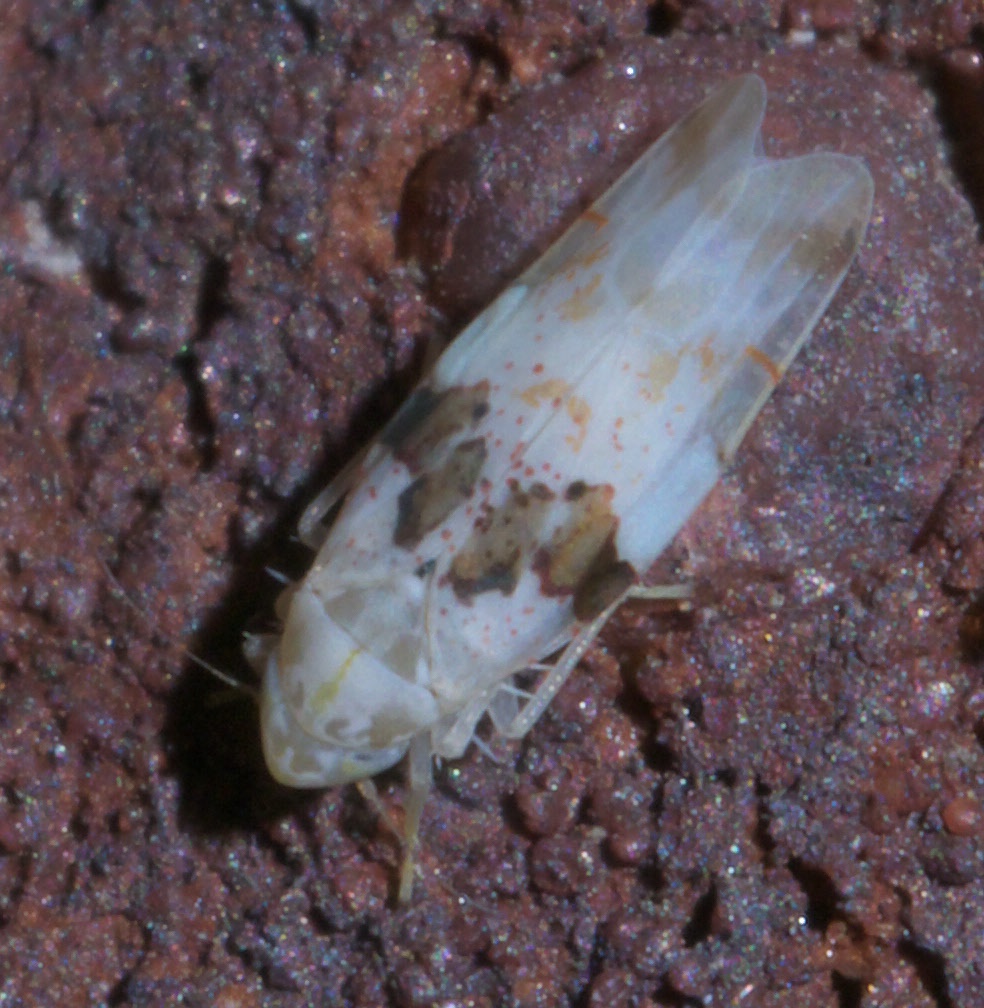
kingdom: Animalia
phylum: Arthropoda
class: Insecta
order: Hemiptera
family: Cicadellidae
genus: Hymetta
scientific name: Hymetta balteata
